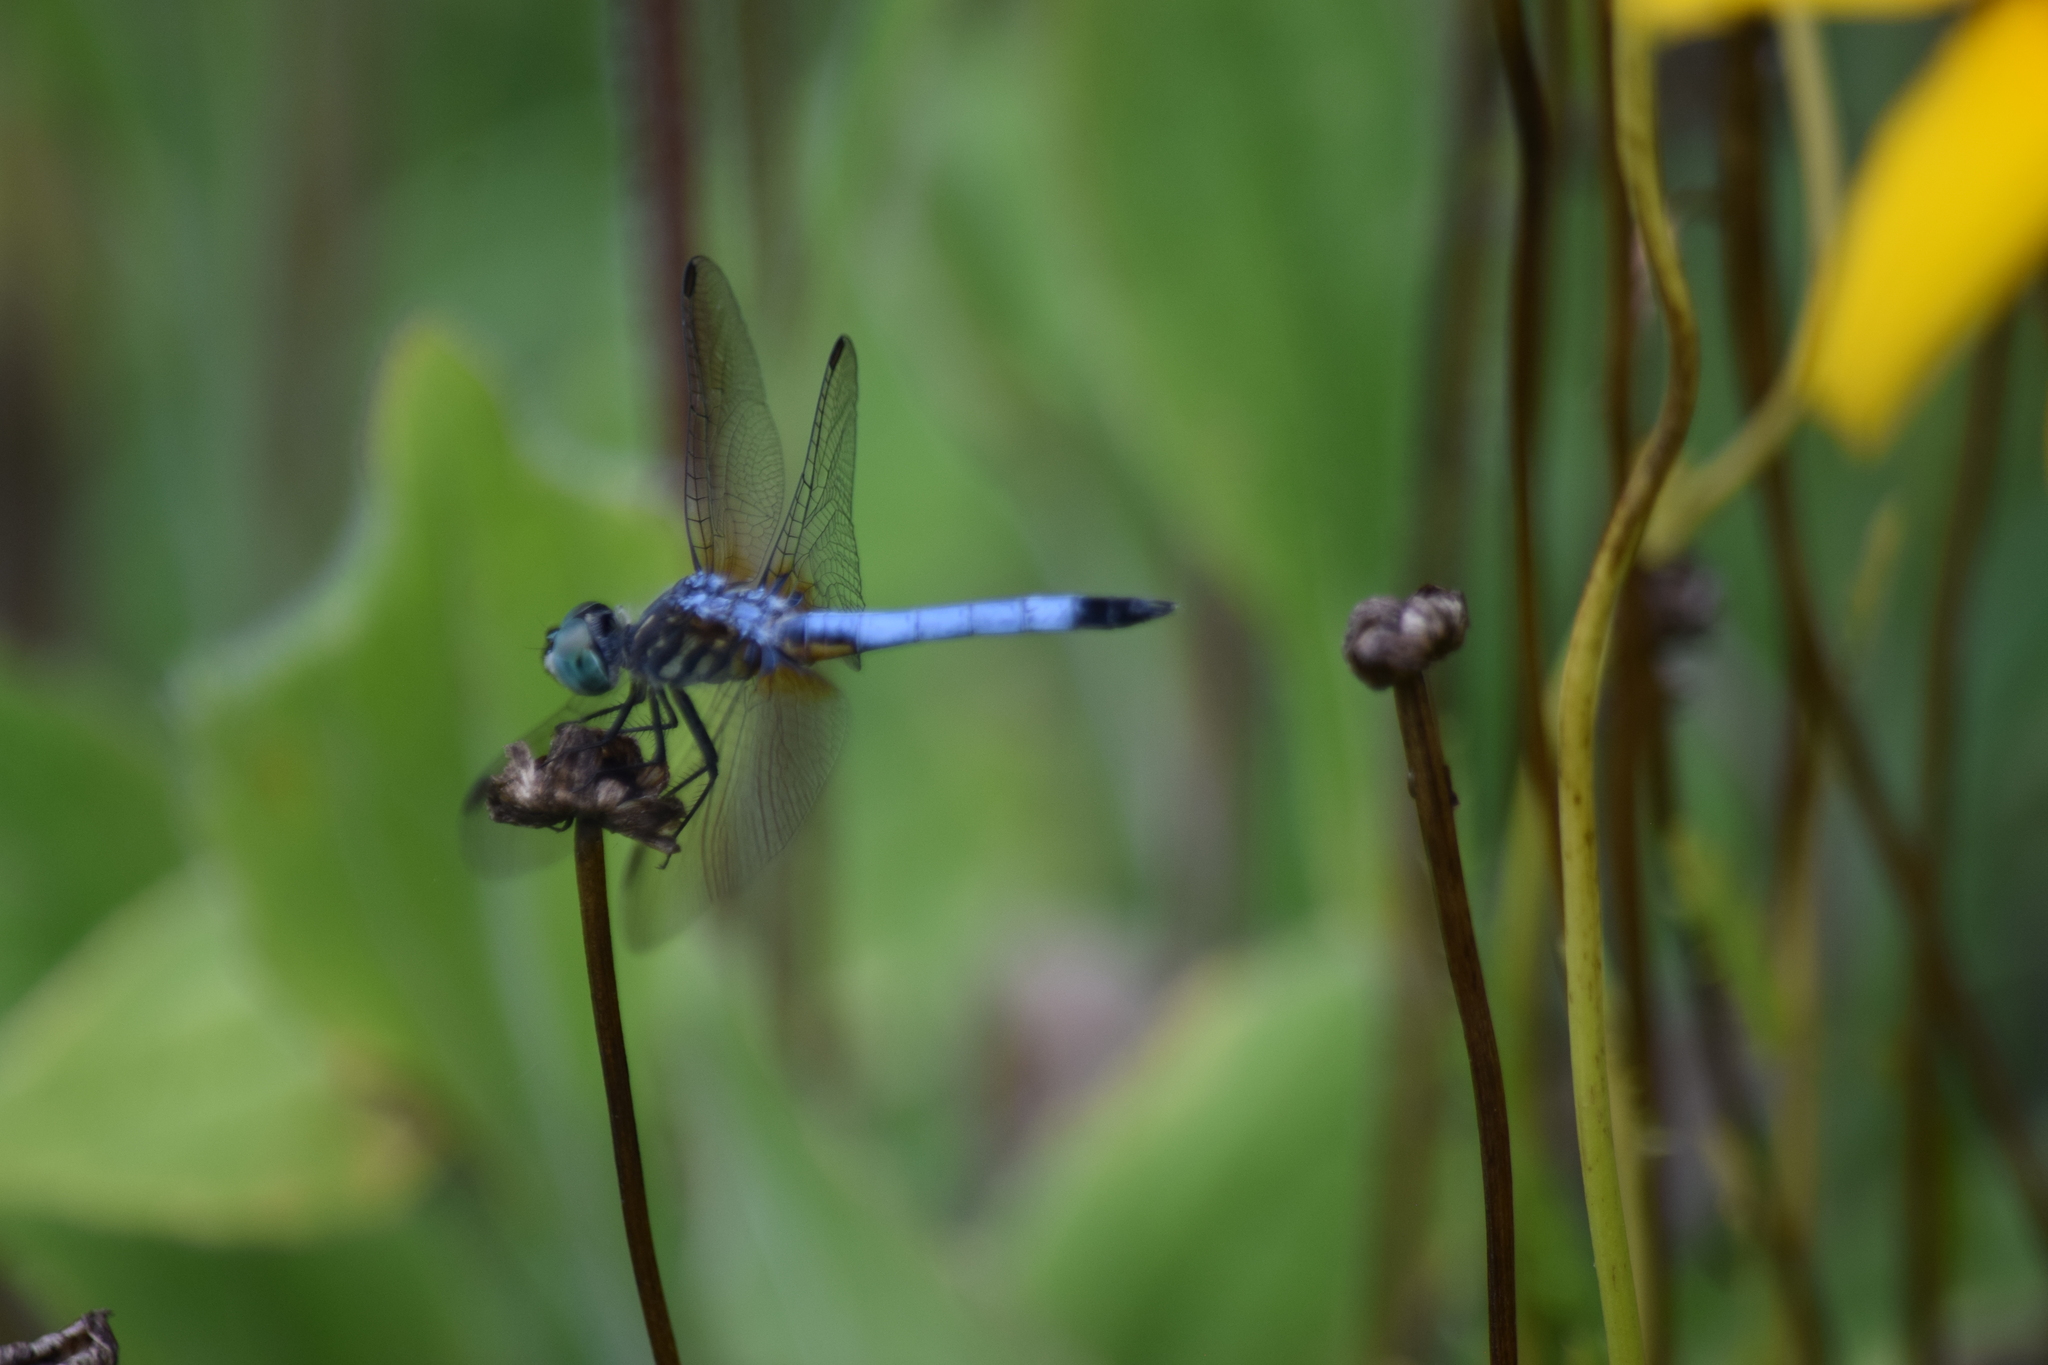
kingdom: Animalia
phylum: Arthropoda
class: Insecta
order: Odonata
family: Libellulidae
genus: Pachydiplax
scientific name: Pachydiplax longipennis
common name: Blue dasher
